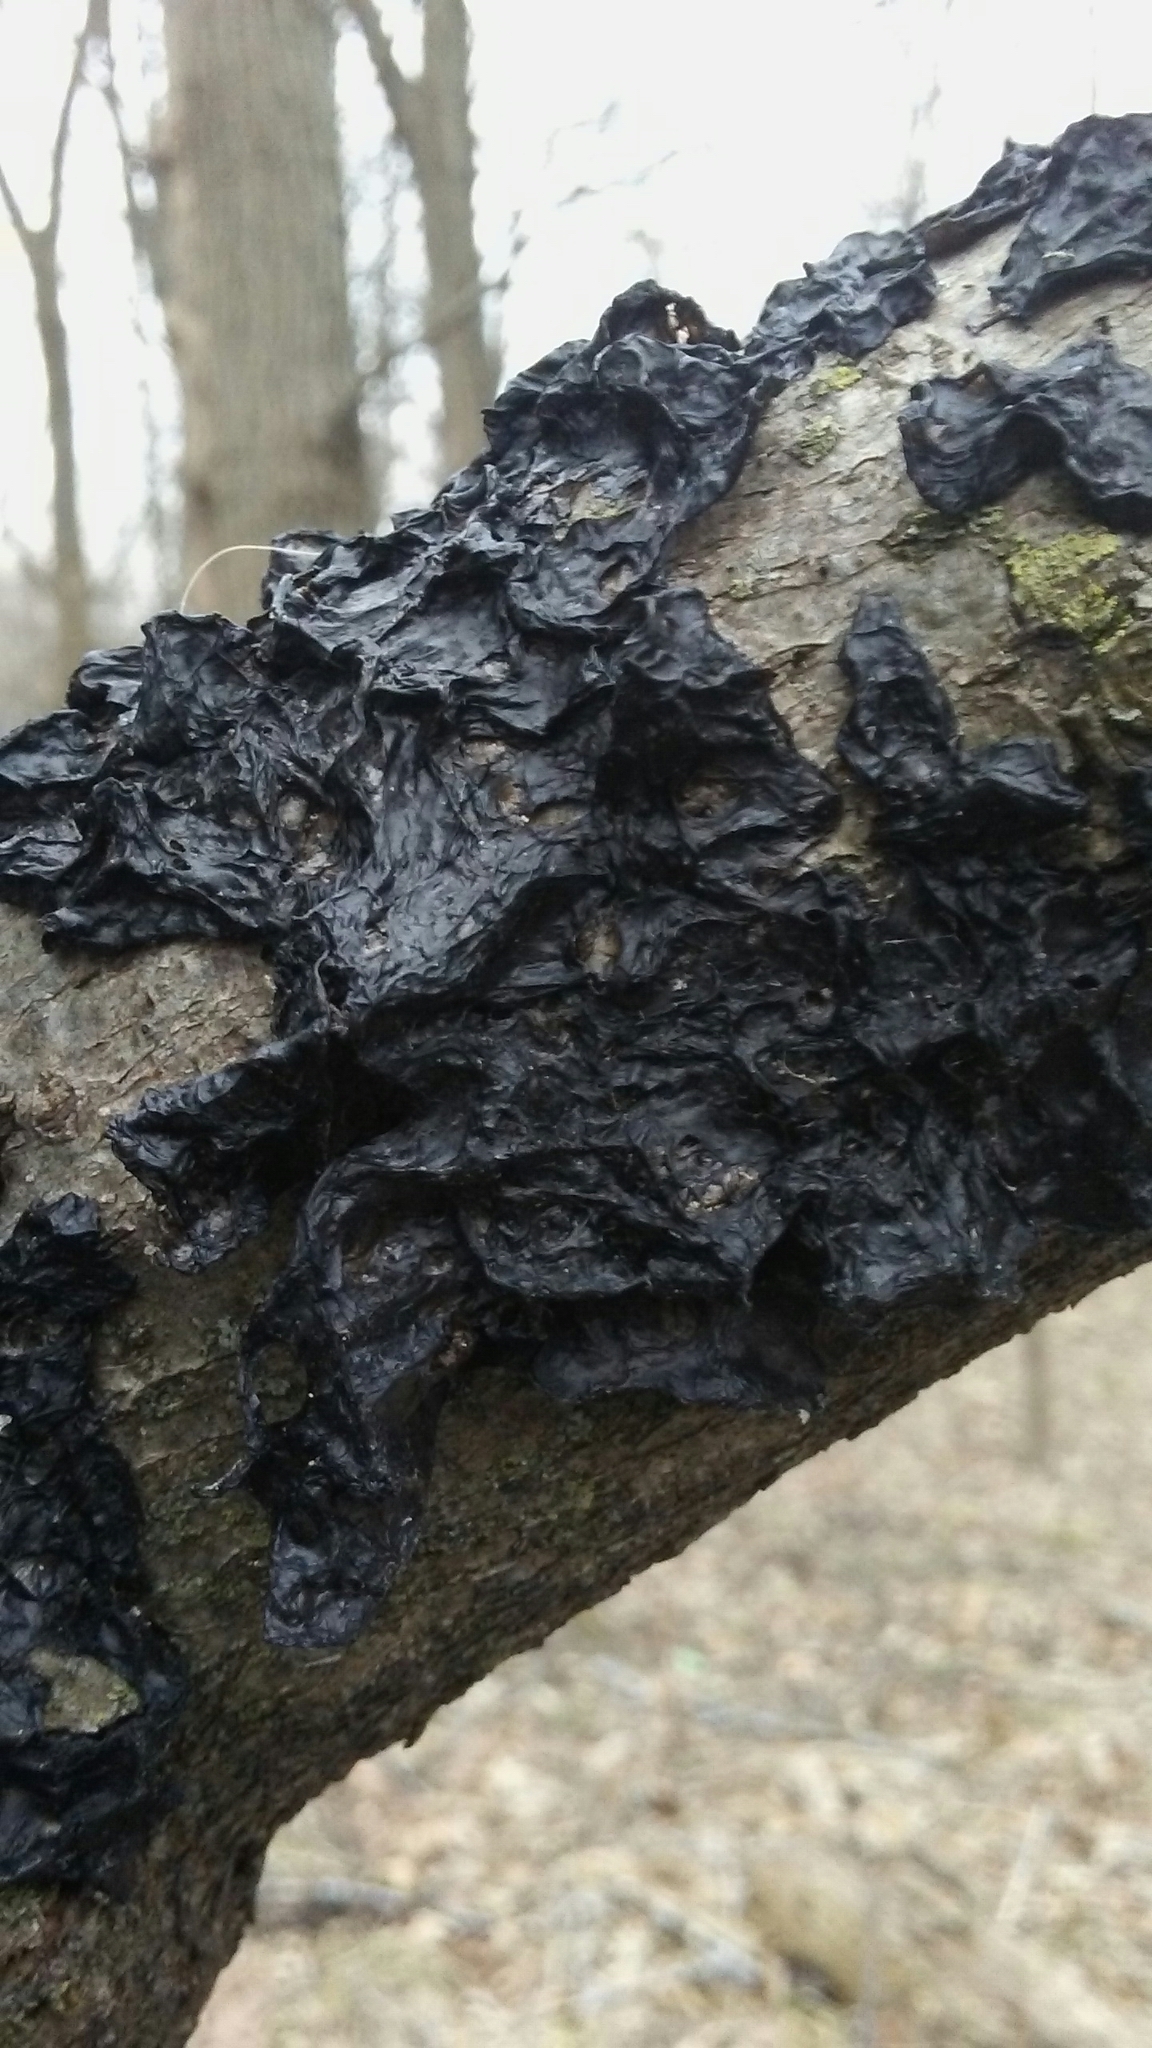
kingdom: Fungi
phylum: Basidiomycota
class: Agaricomycetes
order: Auriculariales
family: Auriculariaceae
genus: Exidia
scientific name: Exidia nigricans
